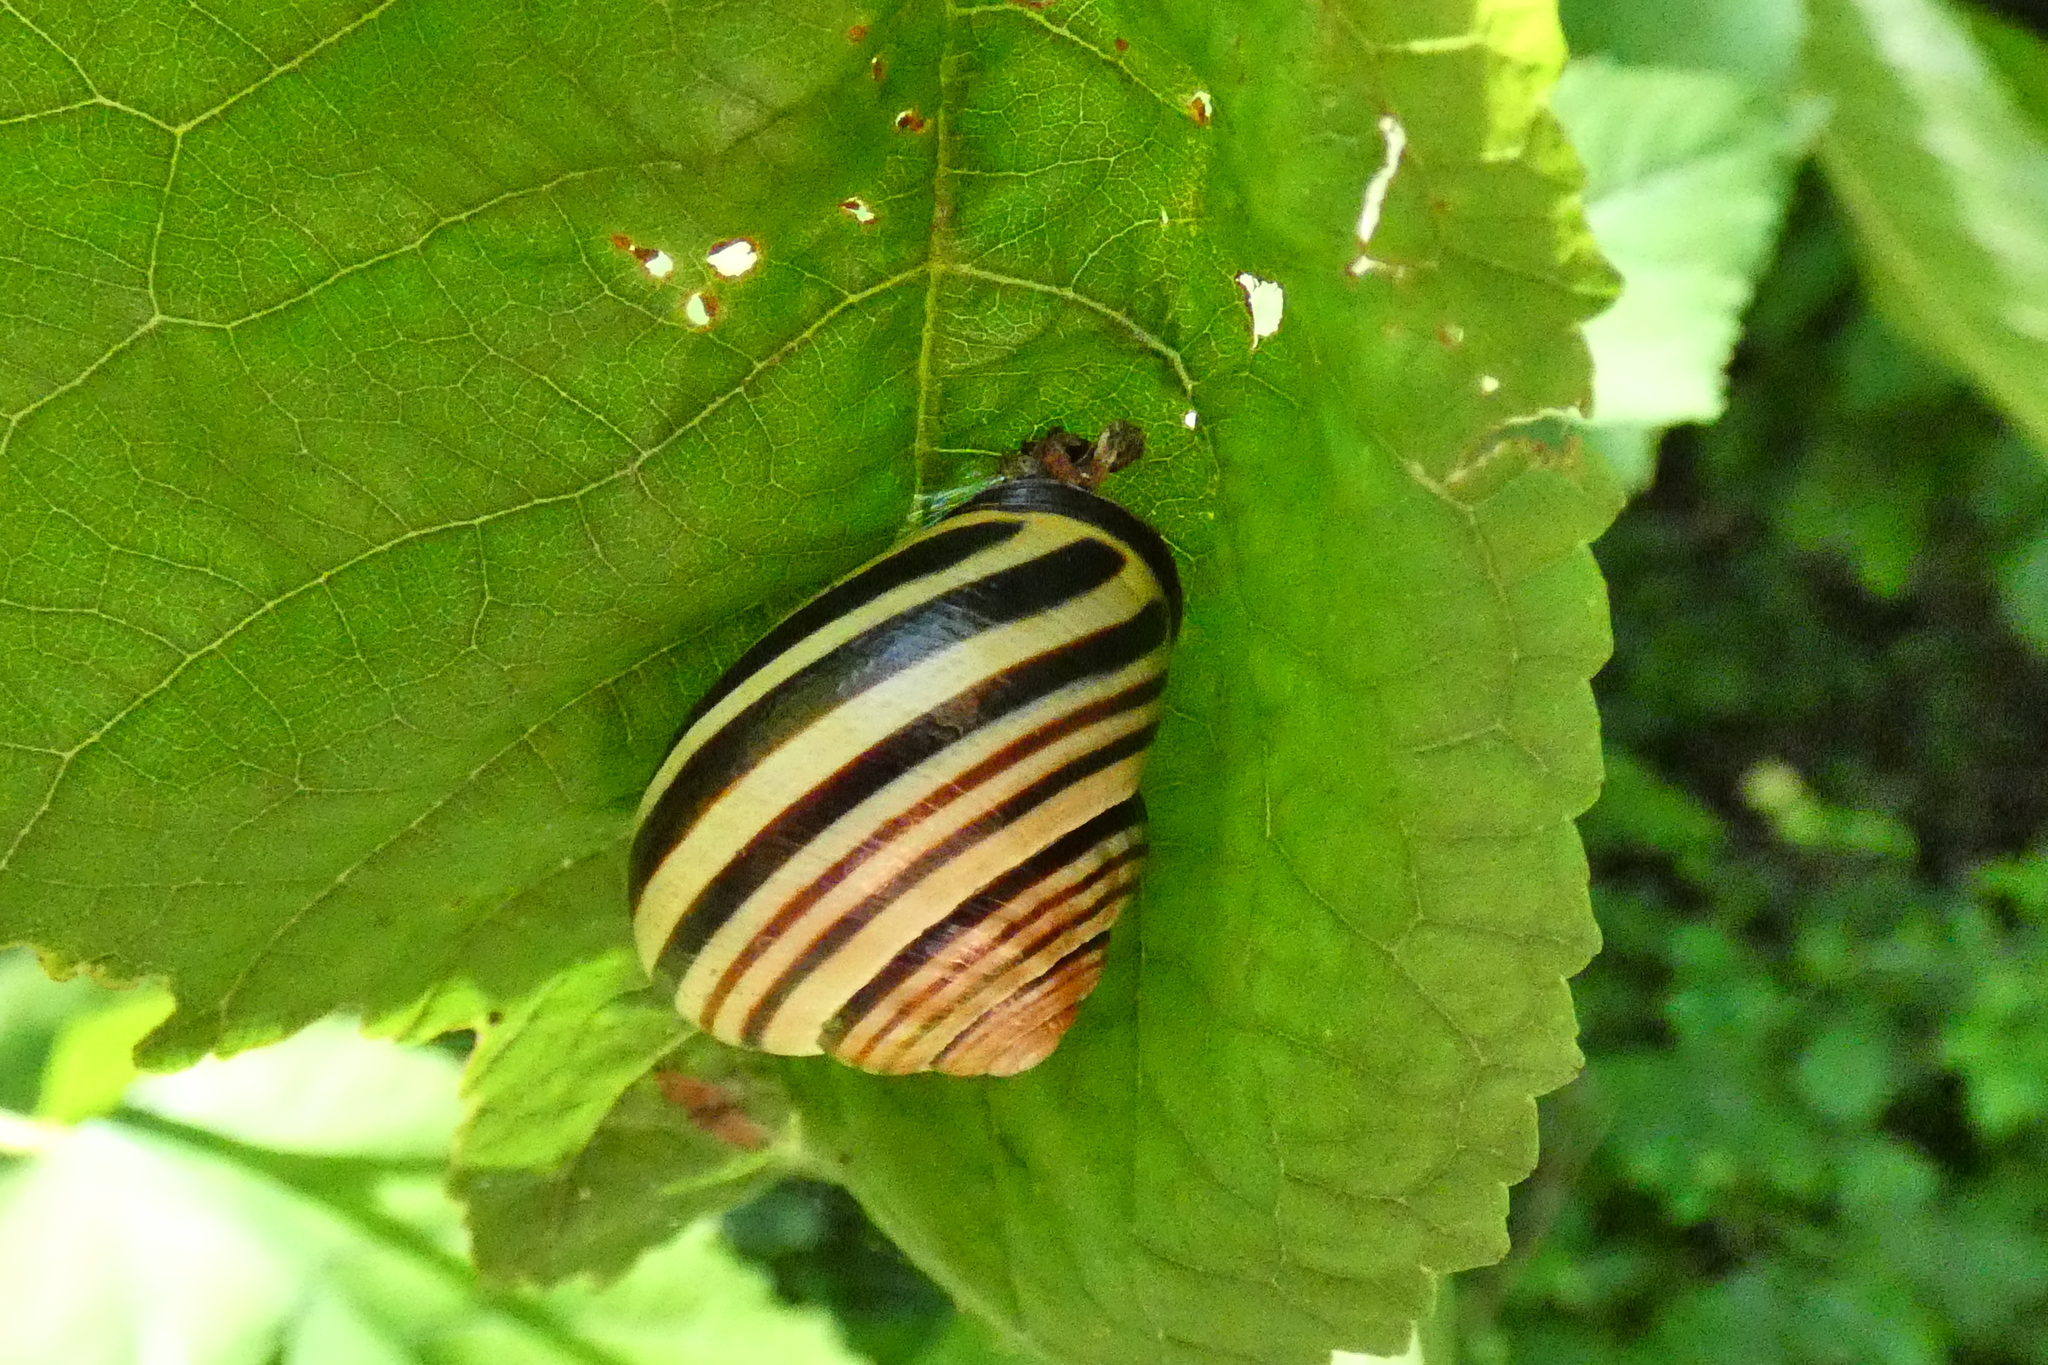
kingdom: Animalia
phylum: Mollusca
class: Gastropoda
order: Stylommatophora
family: Helicidae
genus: Cepaea
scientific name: Cepaea nemoralis
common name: Grovesnail
